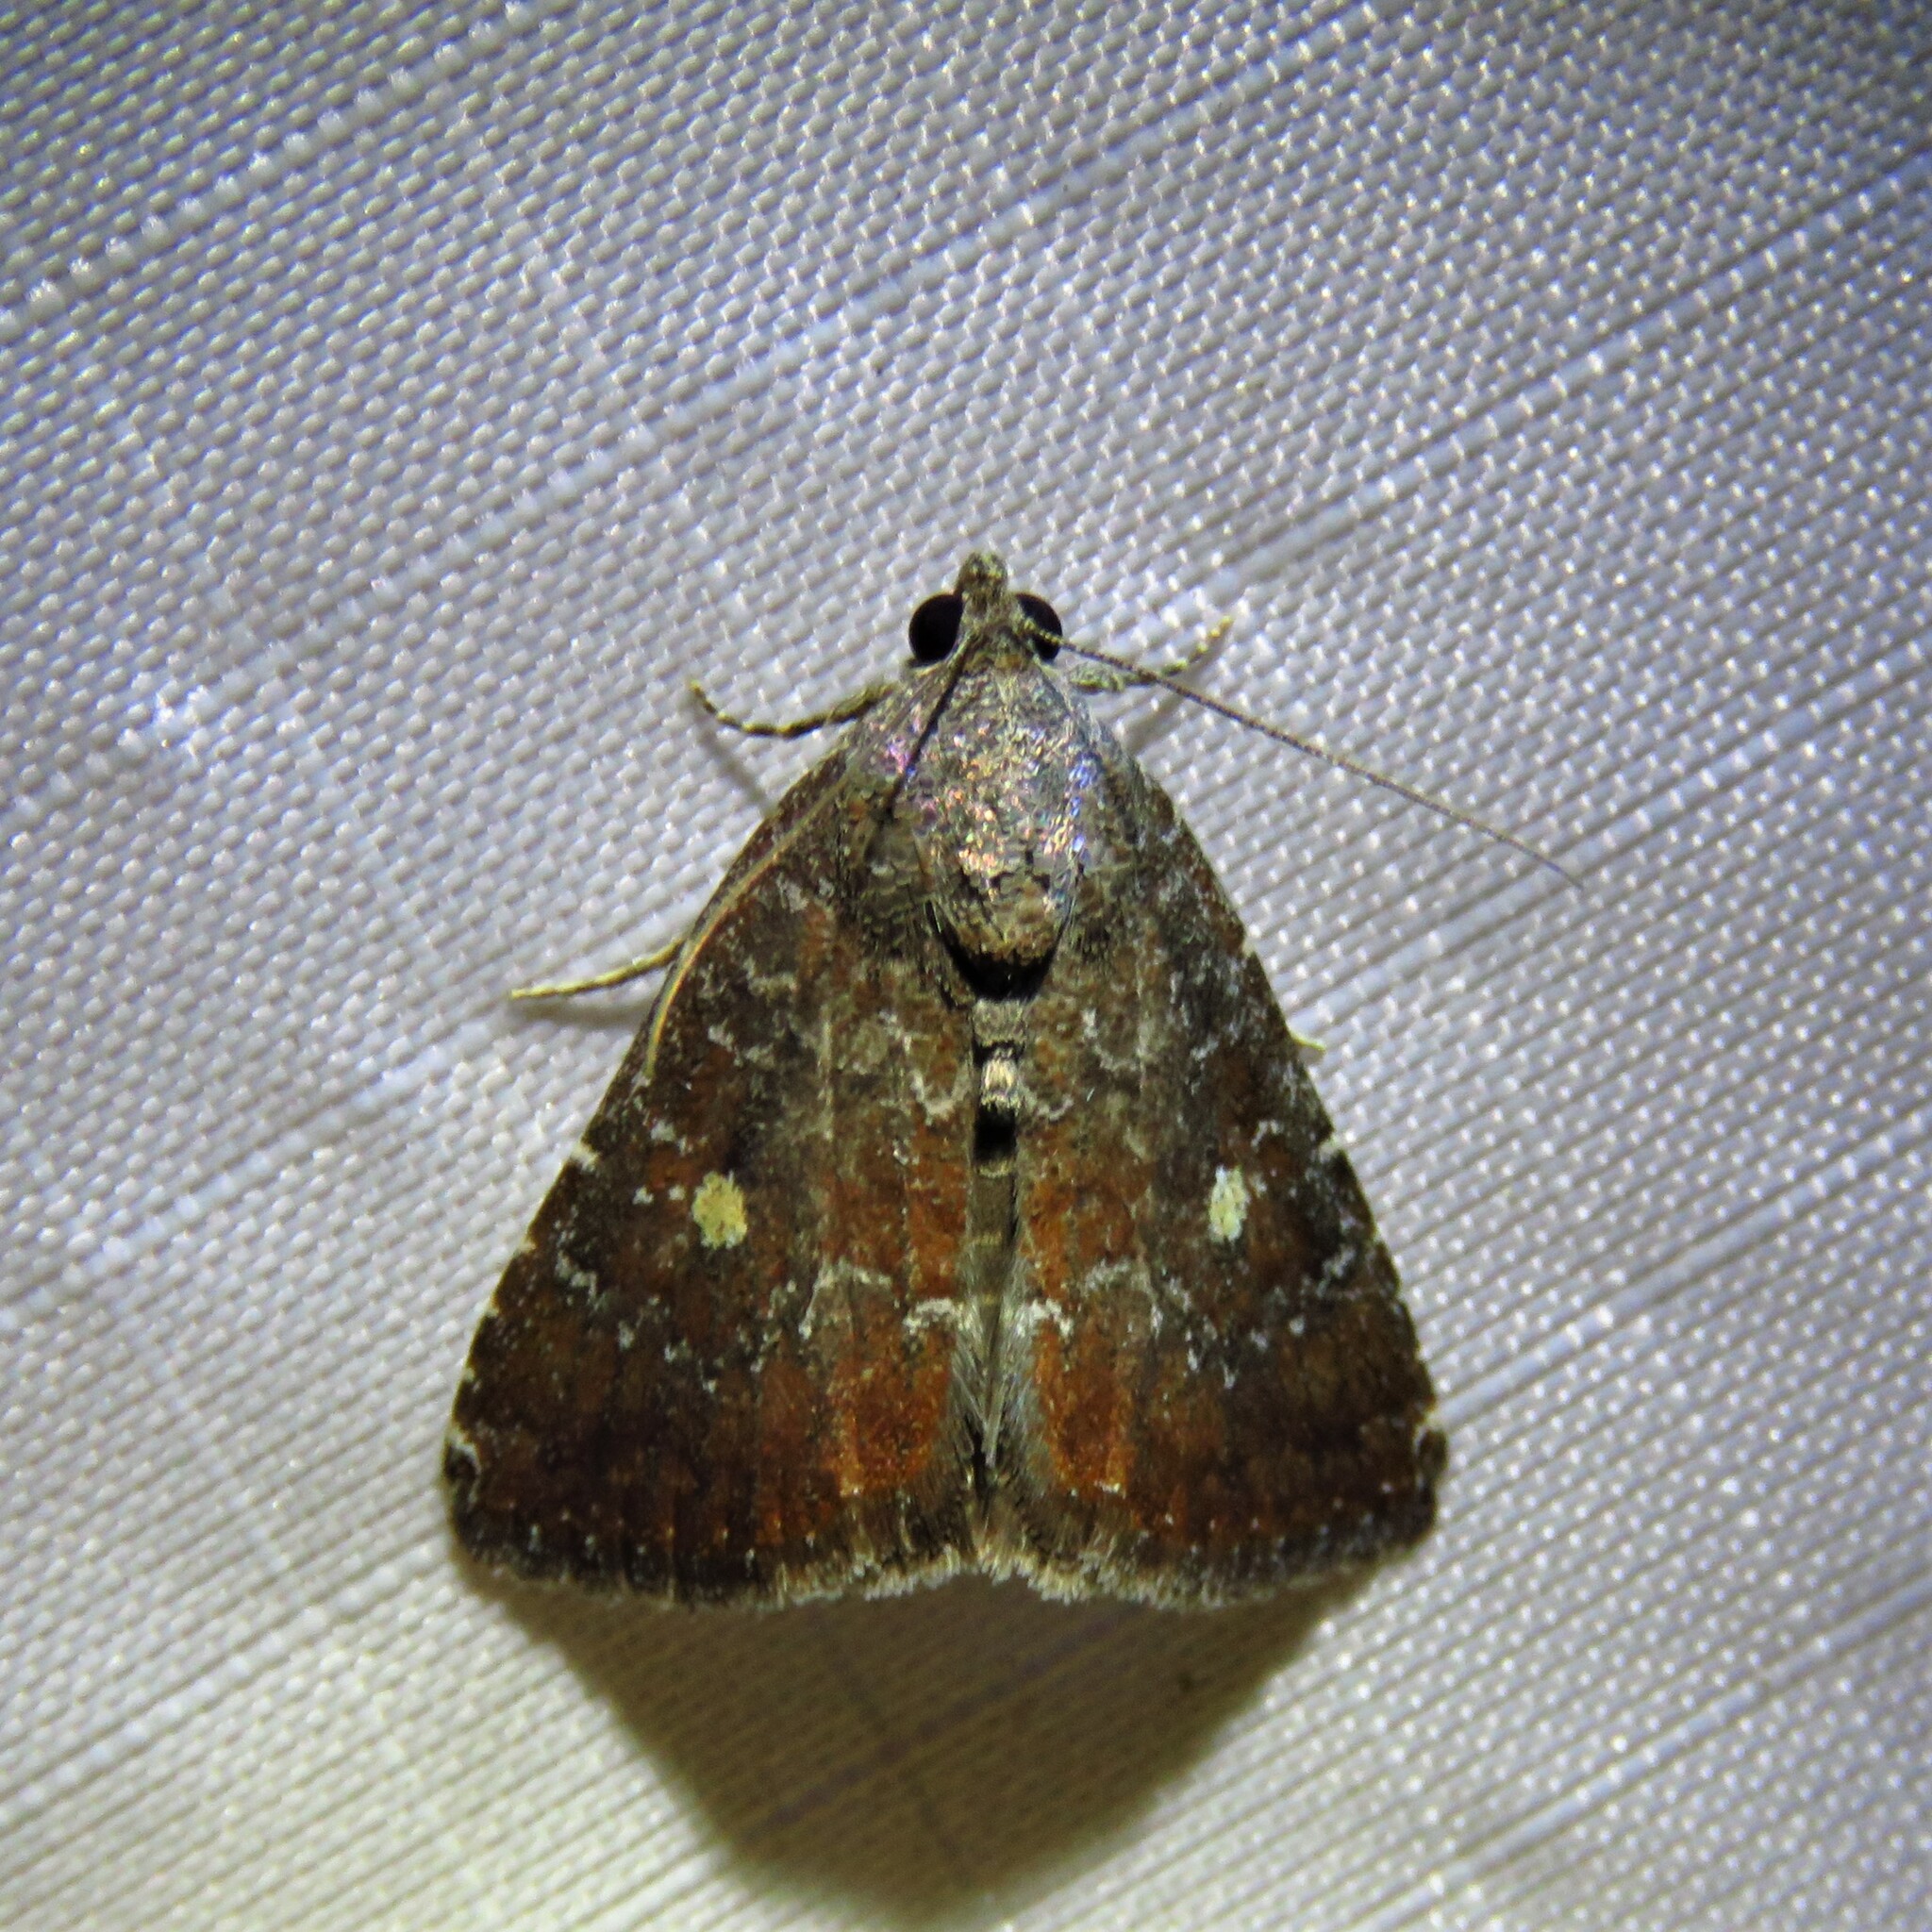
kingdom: Animalia
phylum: Arthropoda
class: Insecta
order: Lepidoptera
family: Noctuidae
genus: Amyna
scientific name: Amyna stricta
